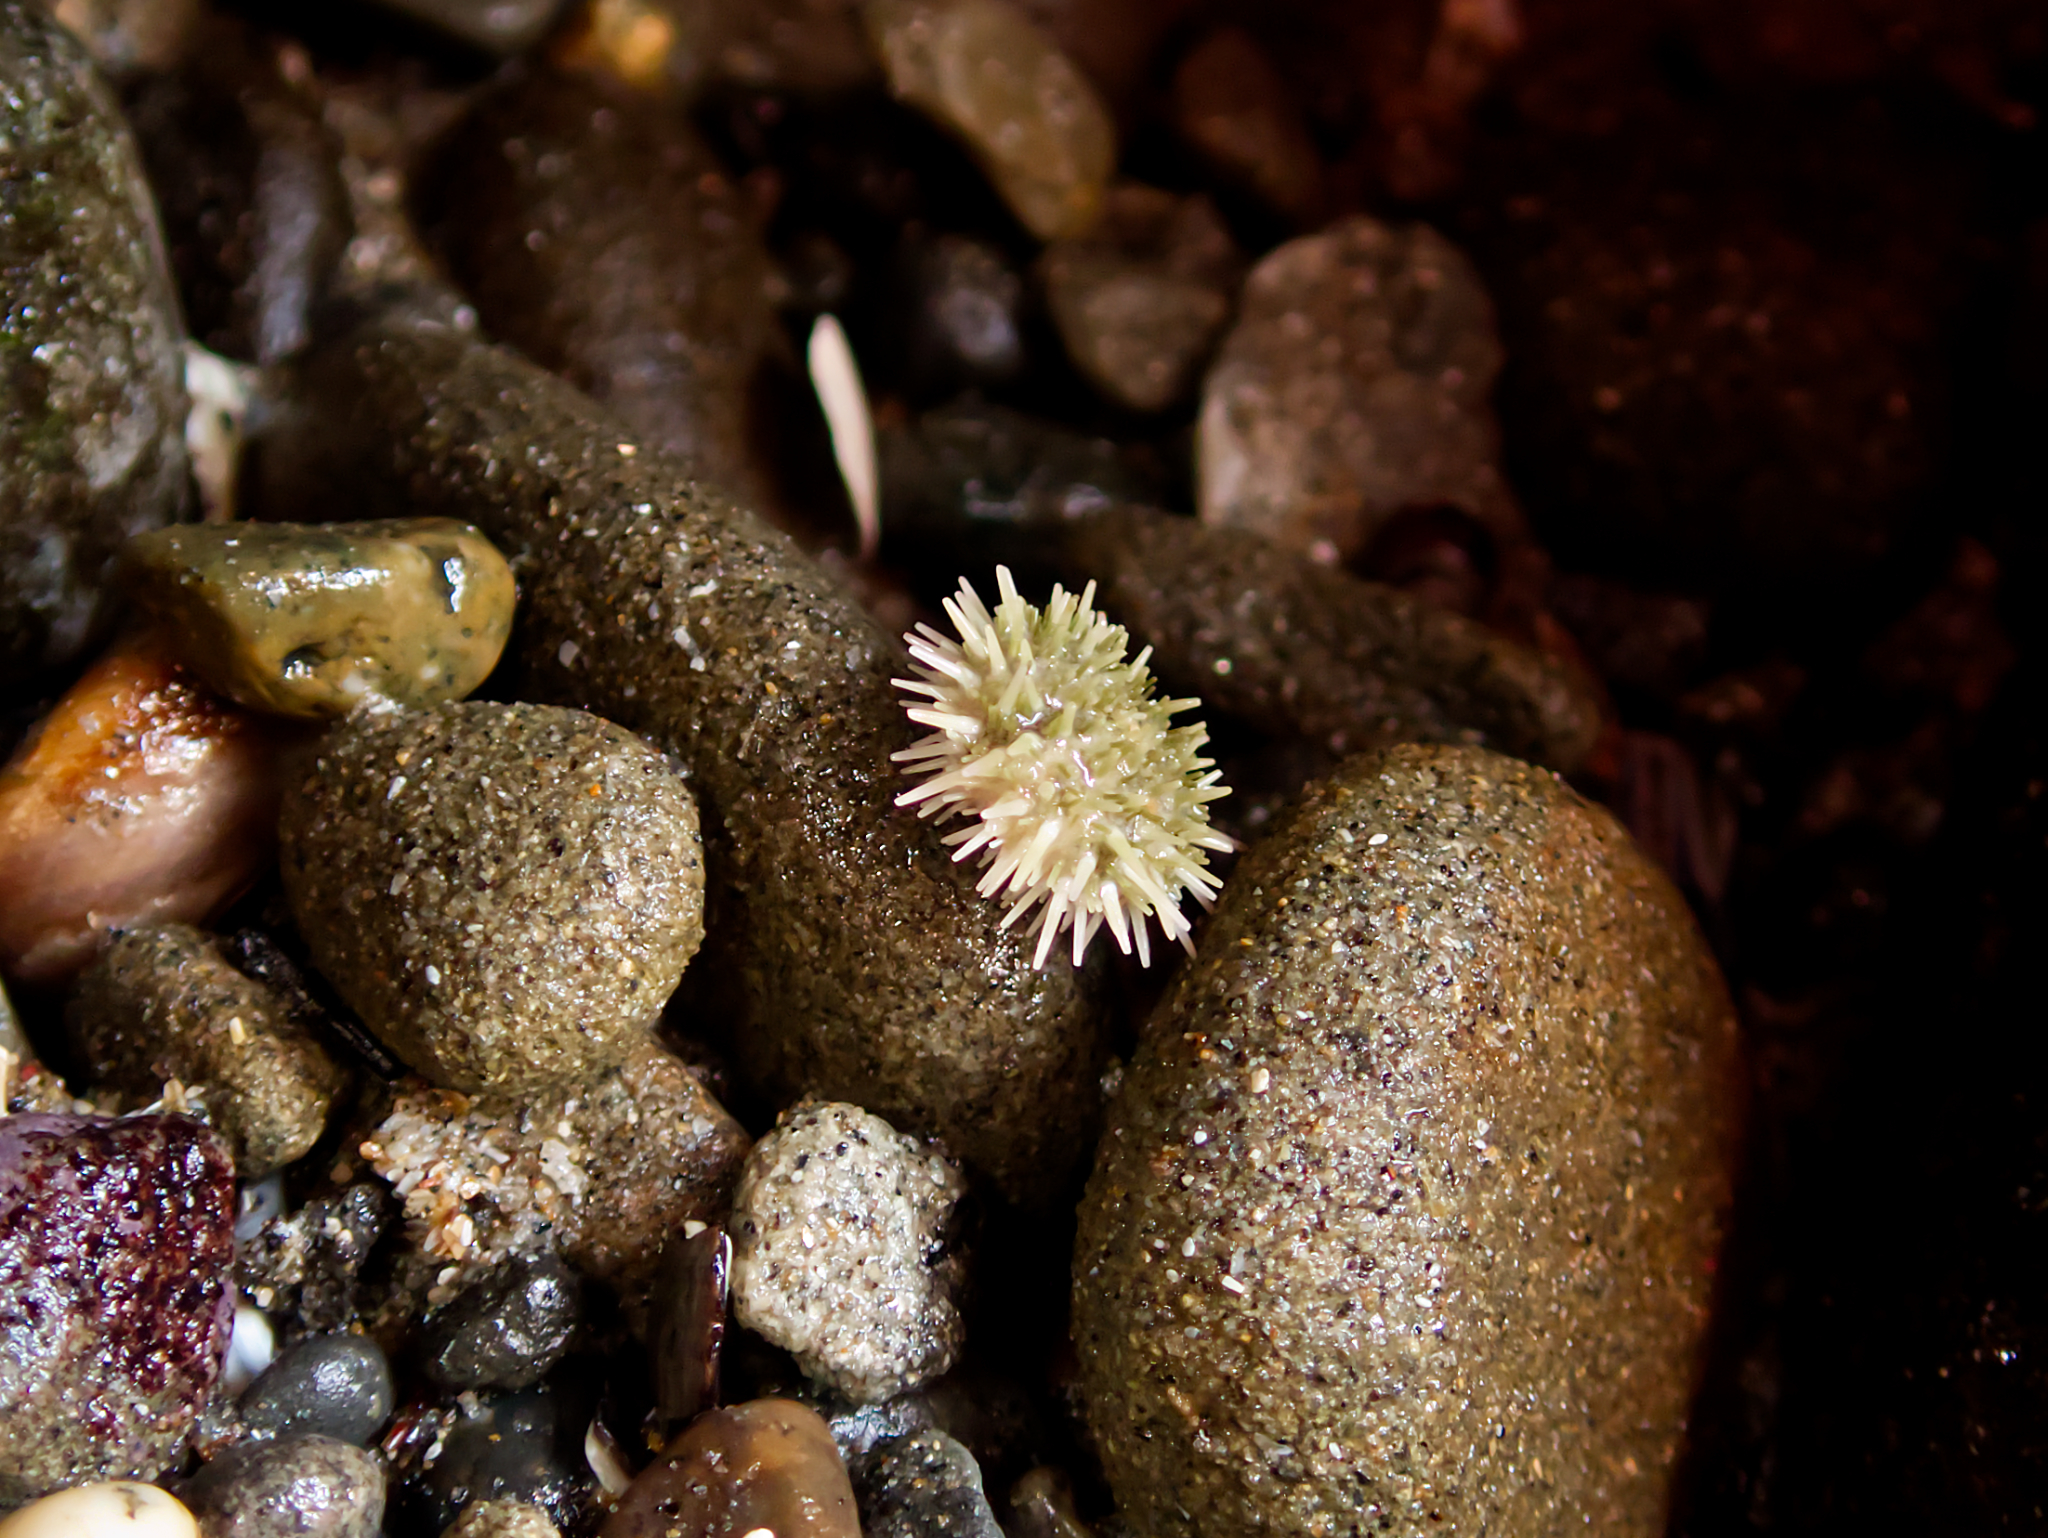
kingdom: Animalia
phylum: Echinodermata
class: Echinoidea
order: Camarodonta
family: Strongylocentrotidae
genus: Strongylocentrotus
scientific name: Strongylocentrotus purpuratus
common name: Purple sea urchin
